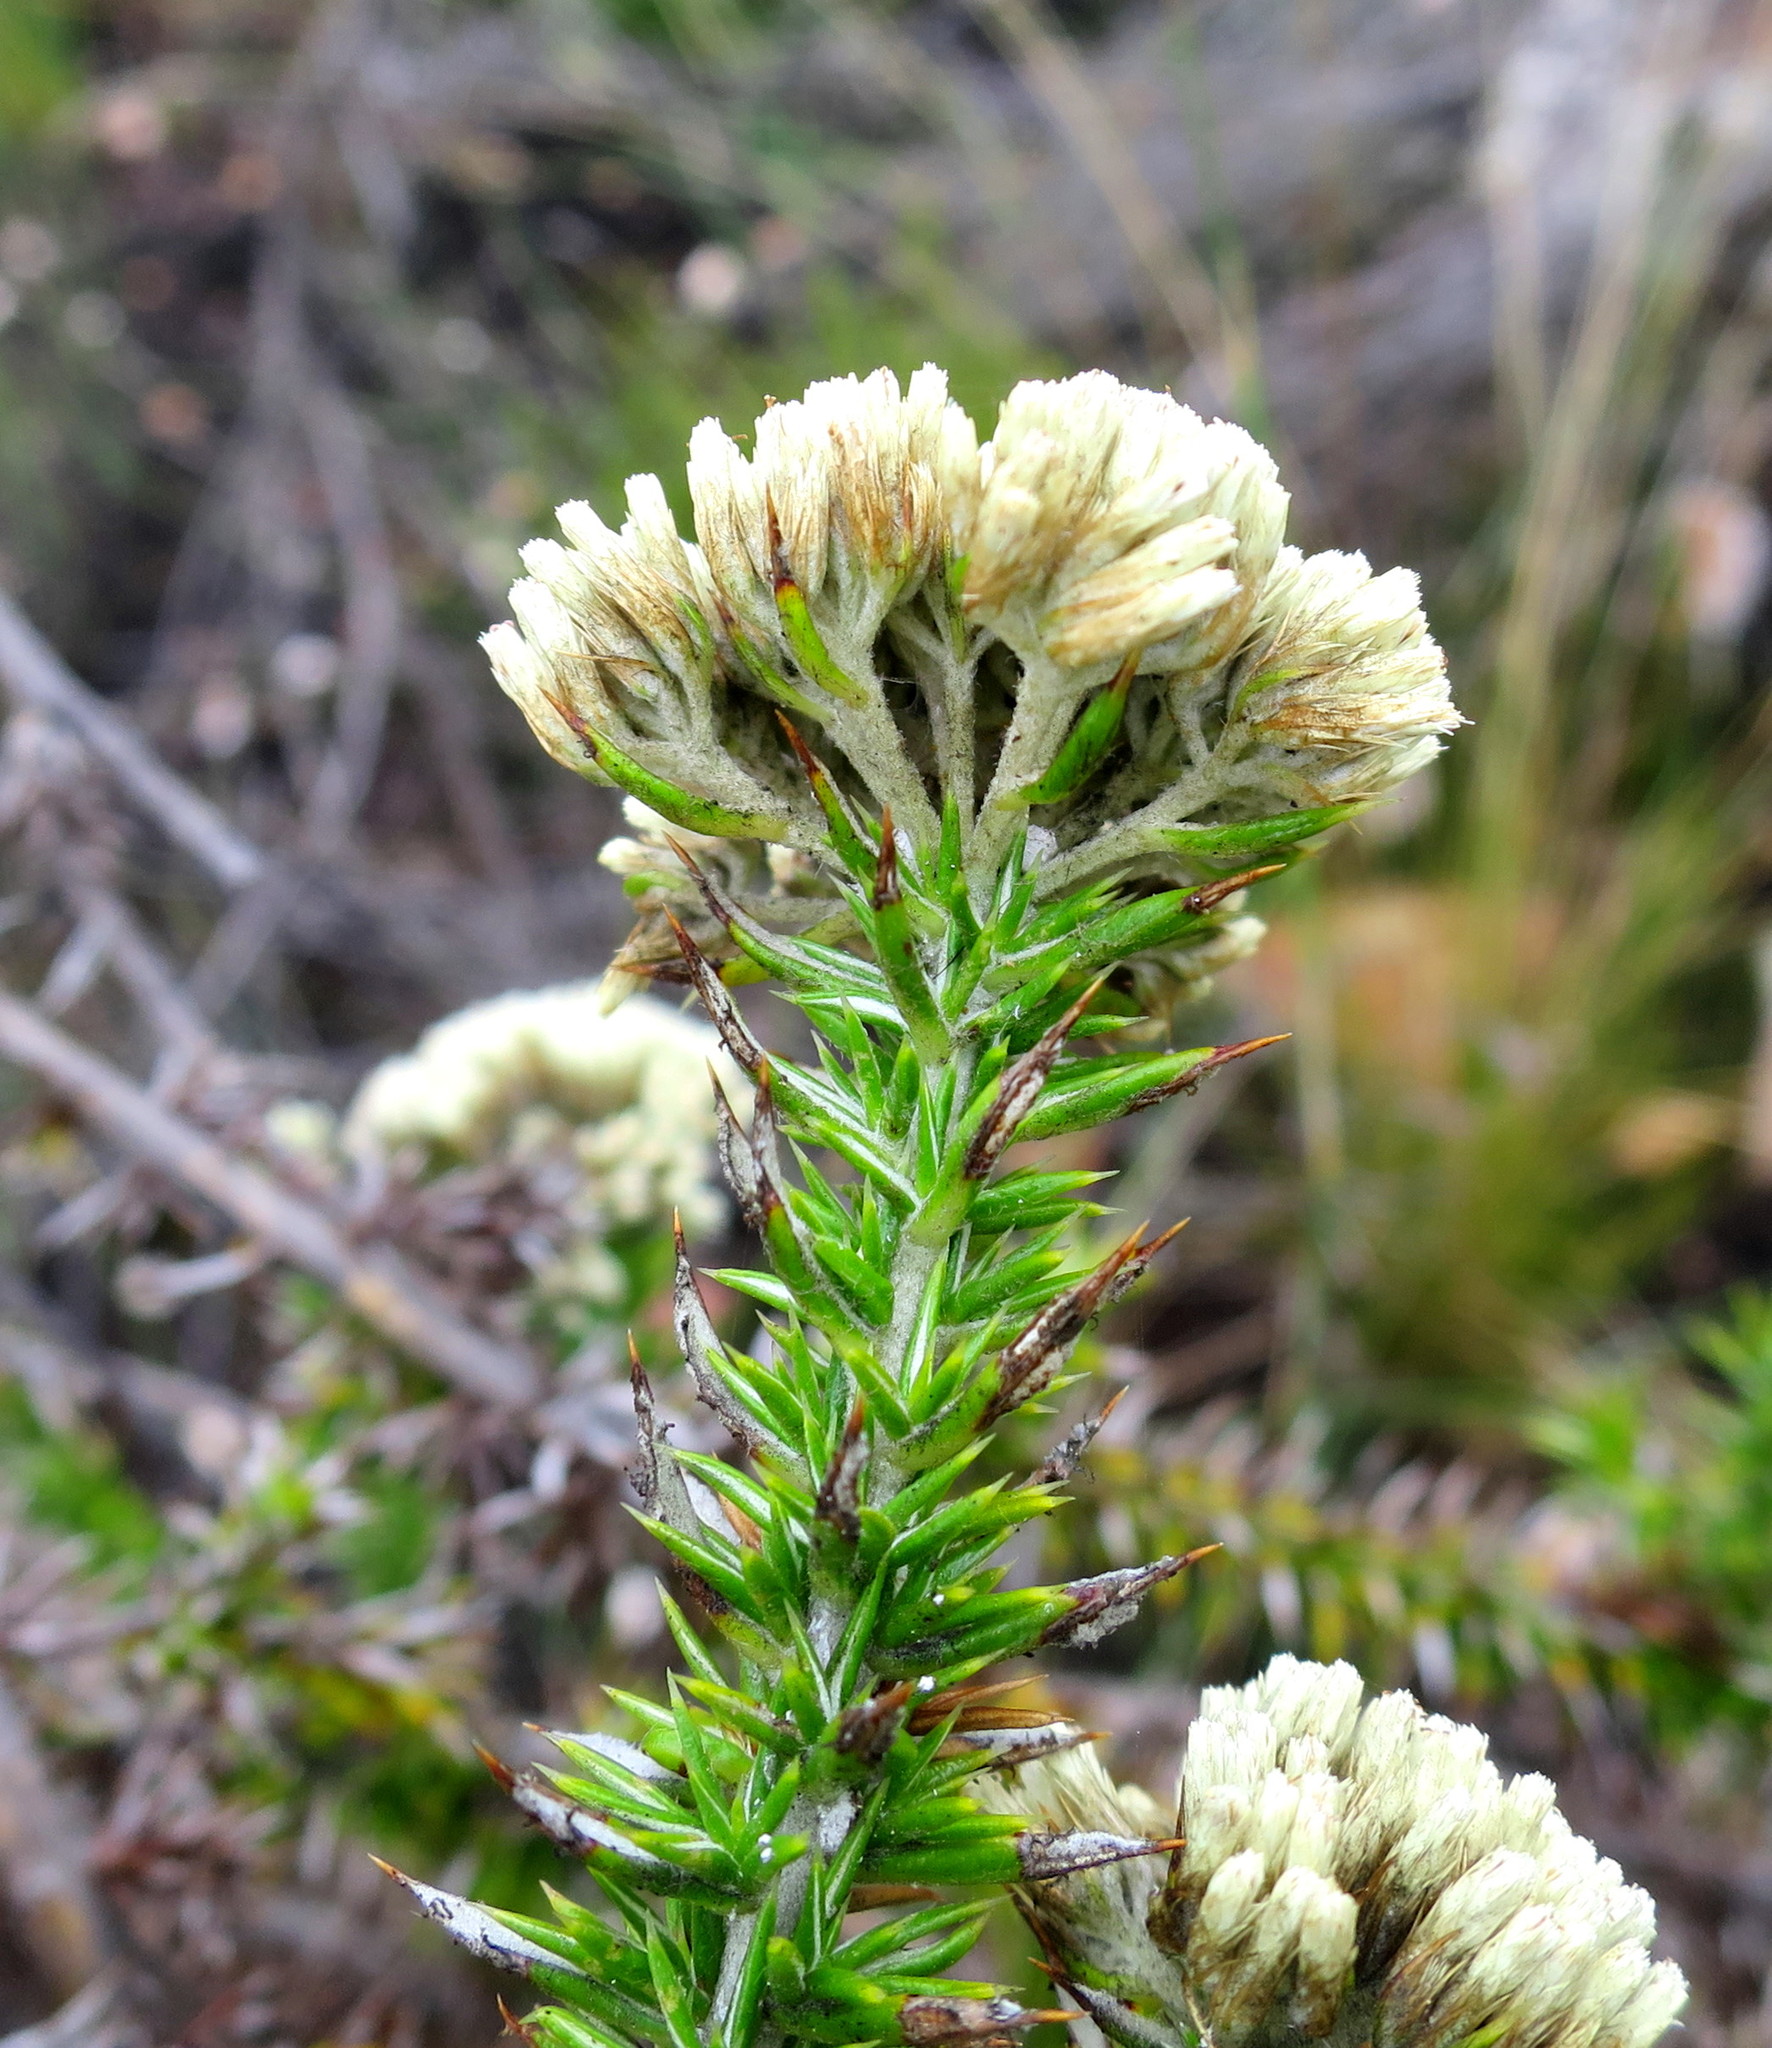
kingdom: Plantae
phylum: Tracheophyta
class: Magnoliopsida
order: Asterales
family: Asteraceae
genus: Metalasia
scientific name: Metalasia trivialis
